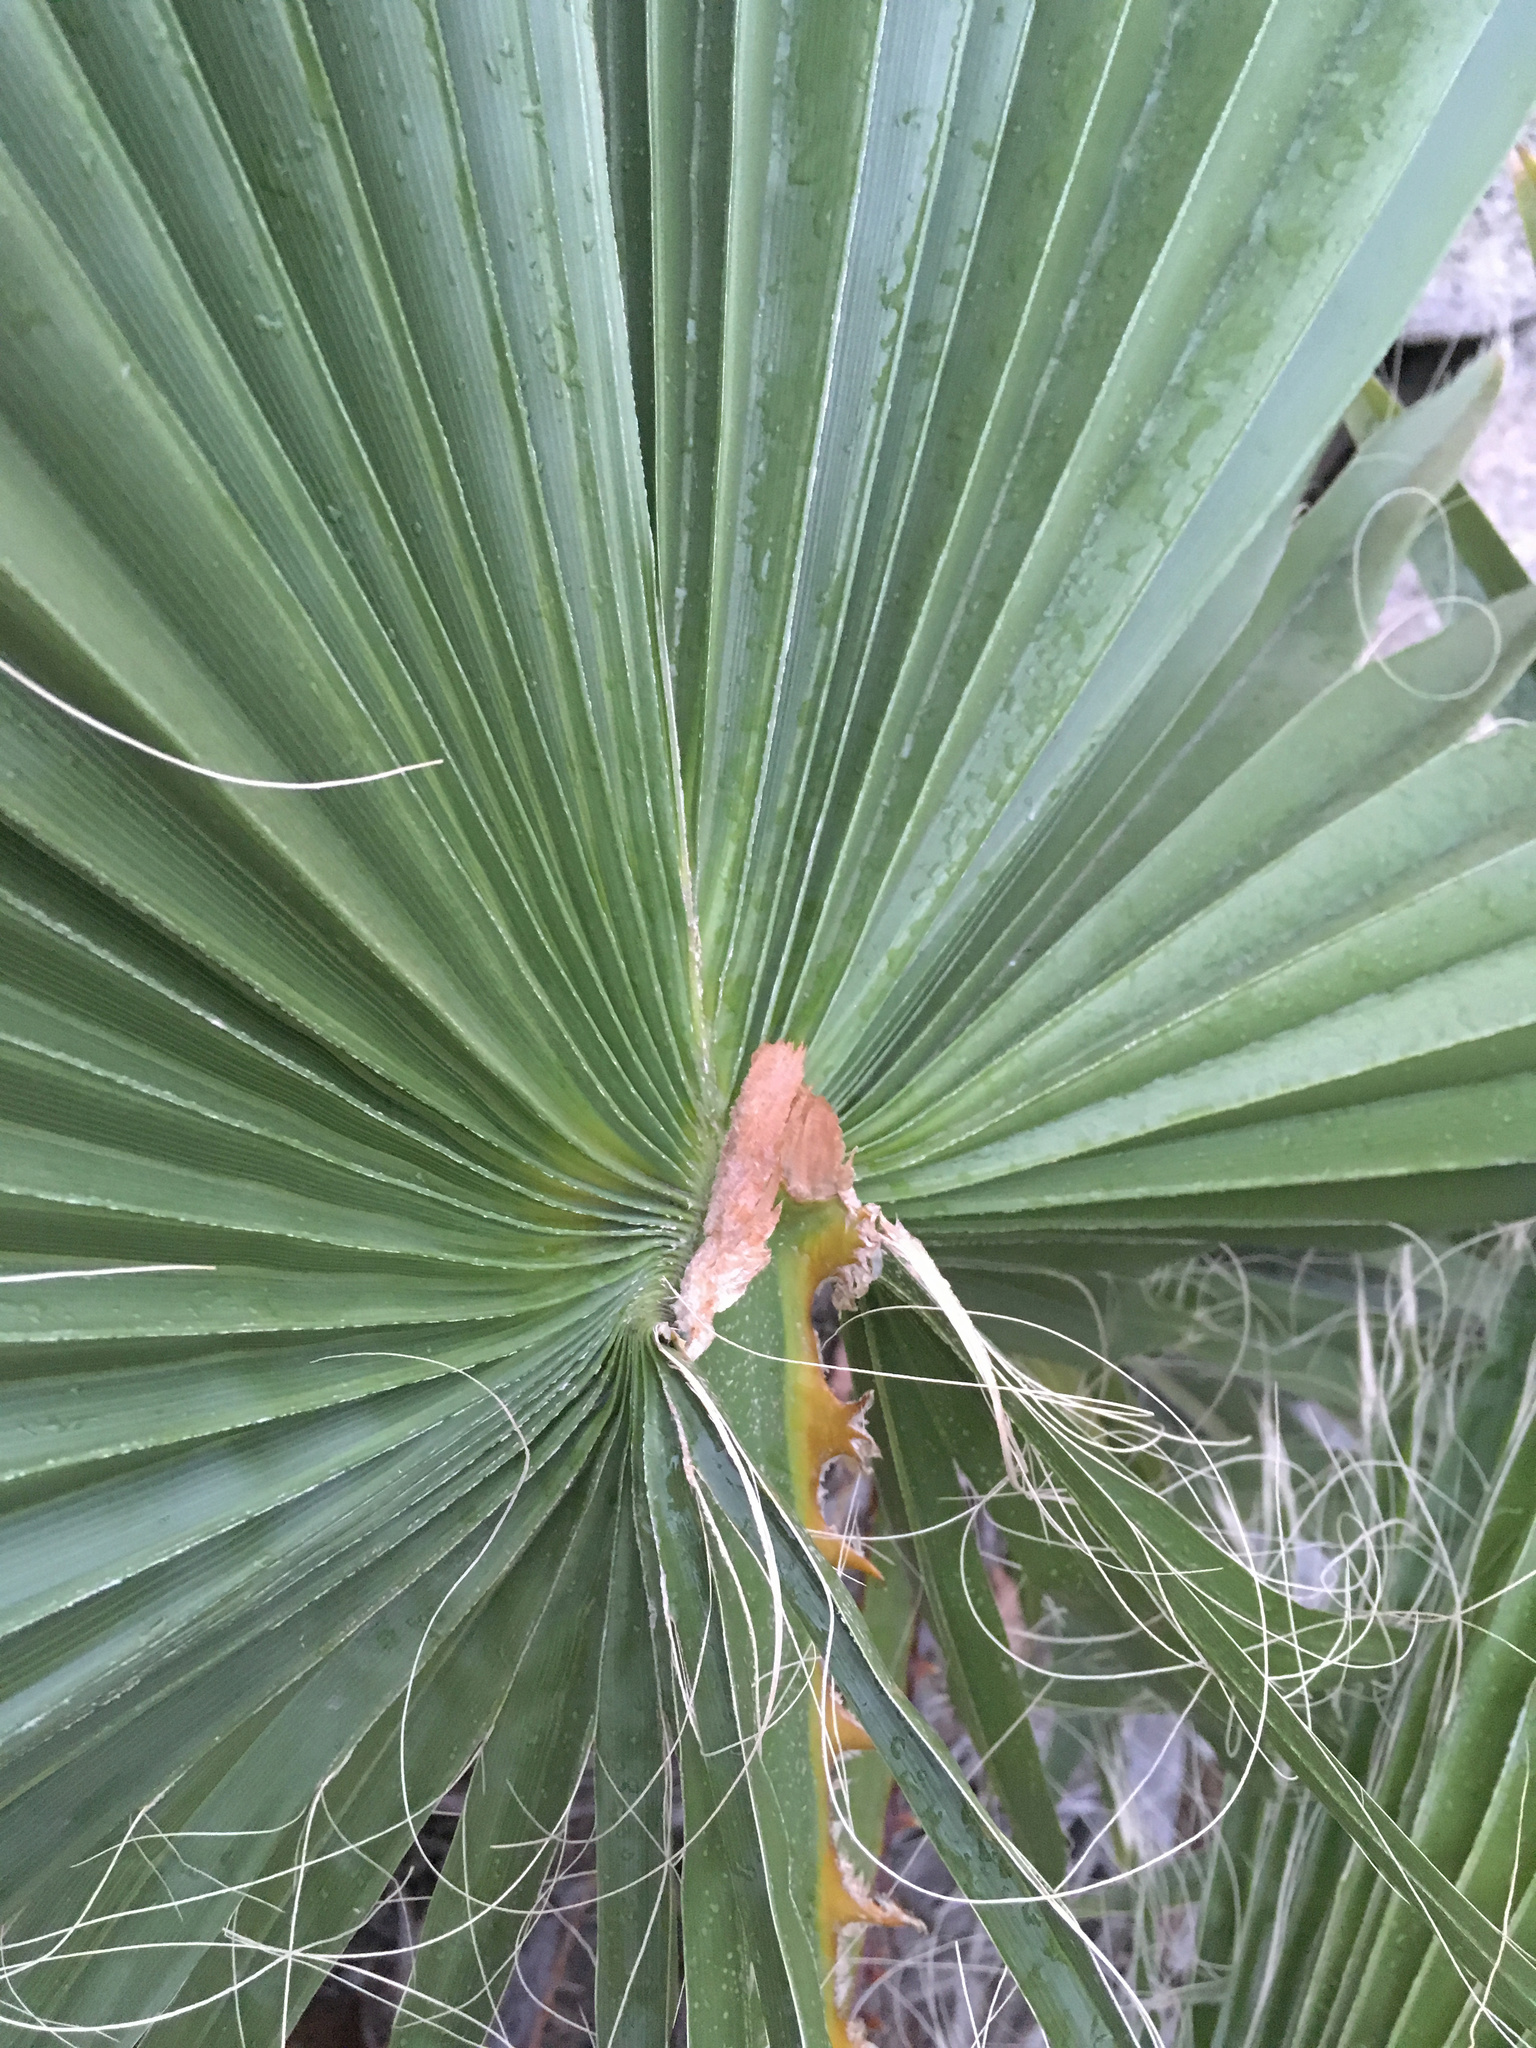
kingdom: Plantae
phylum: Tracheophyta
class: Liliopsida
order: Arecales
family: Arecaceae
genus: Washingtonia
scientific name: Washingtonia robusta
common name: Mexican fan palm
